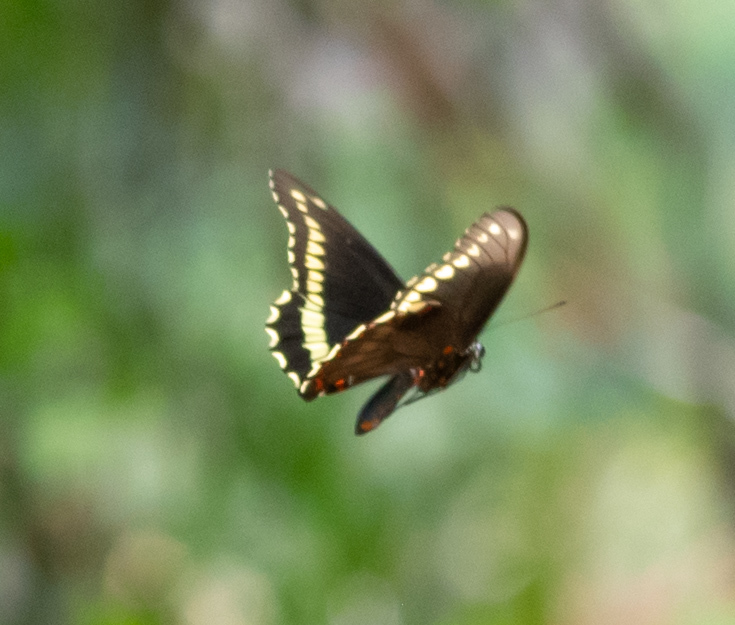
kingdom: Animalia
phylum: Arthropoda
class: Insecta
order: Lepidoptera
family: Papilionidae
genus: Battus
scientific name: Battus polydamas
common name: Polydamas swallowtail
